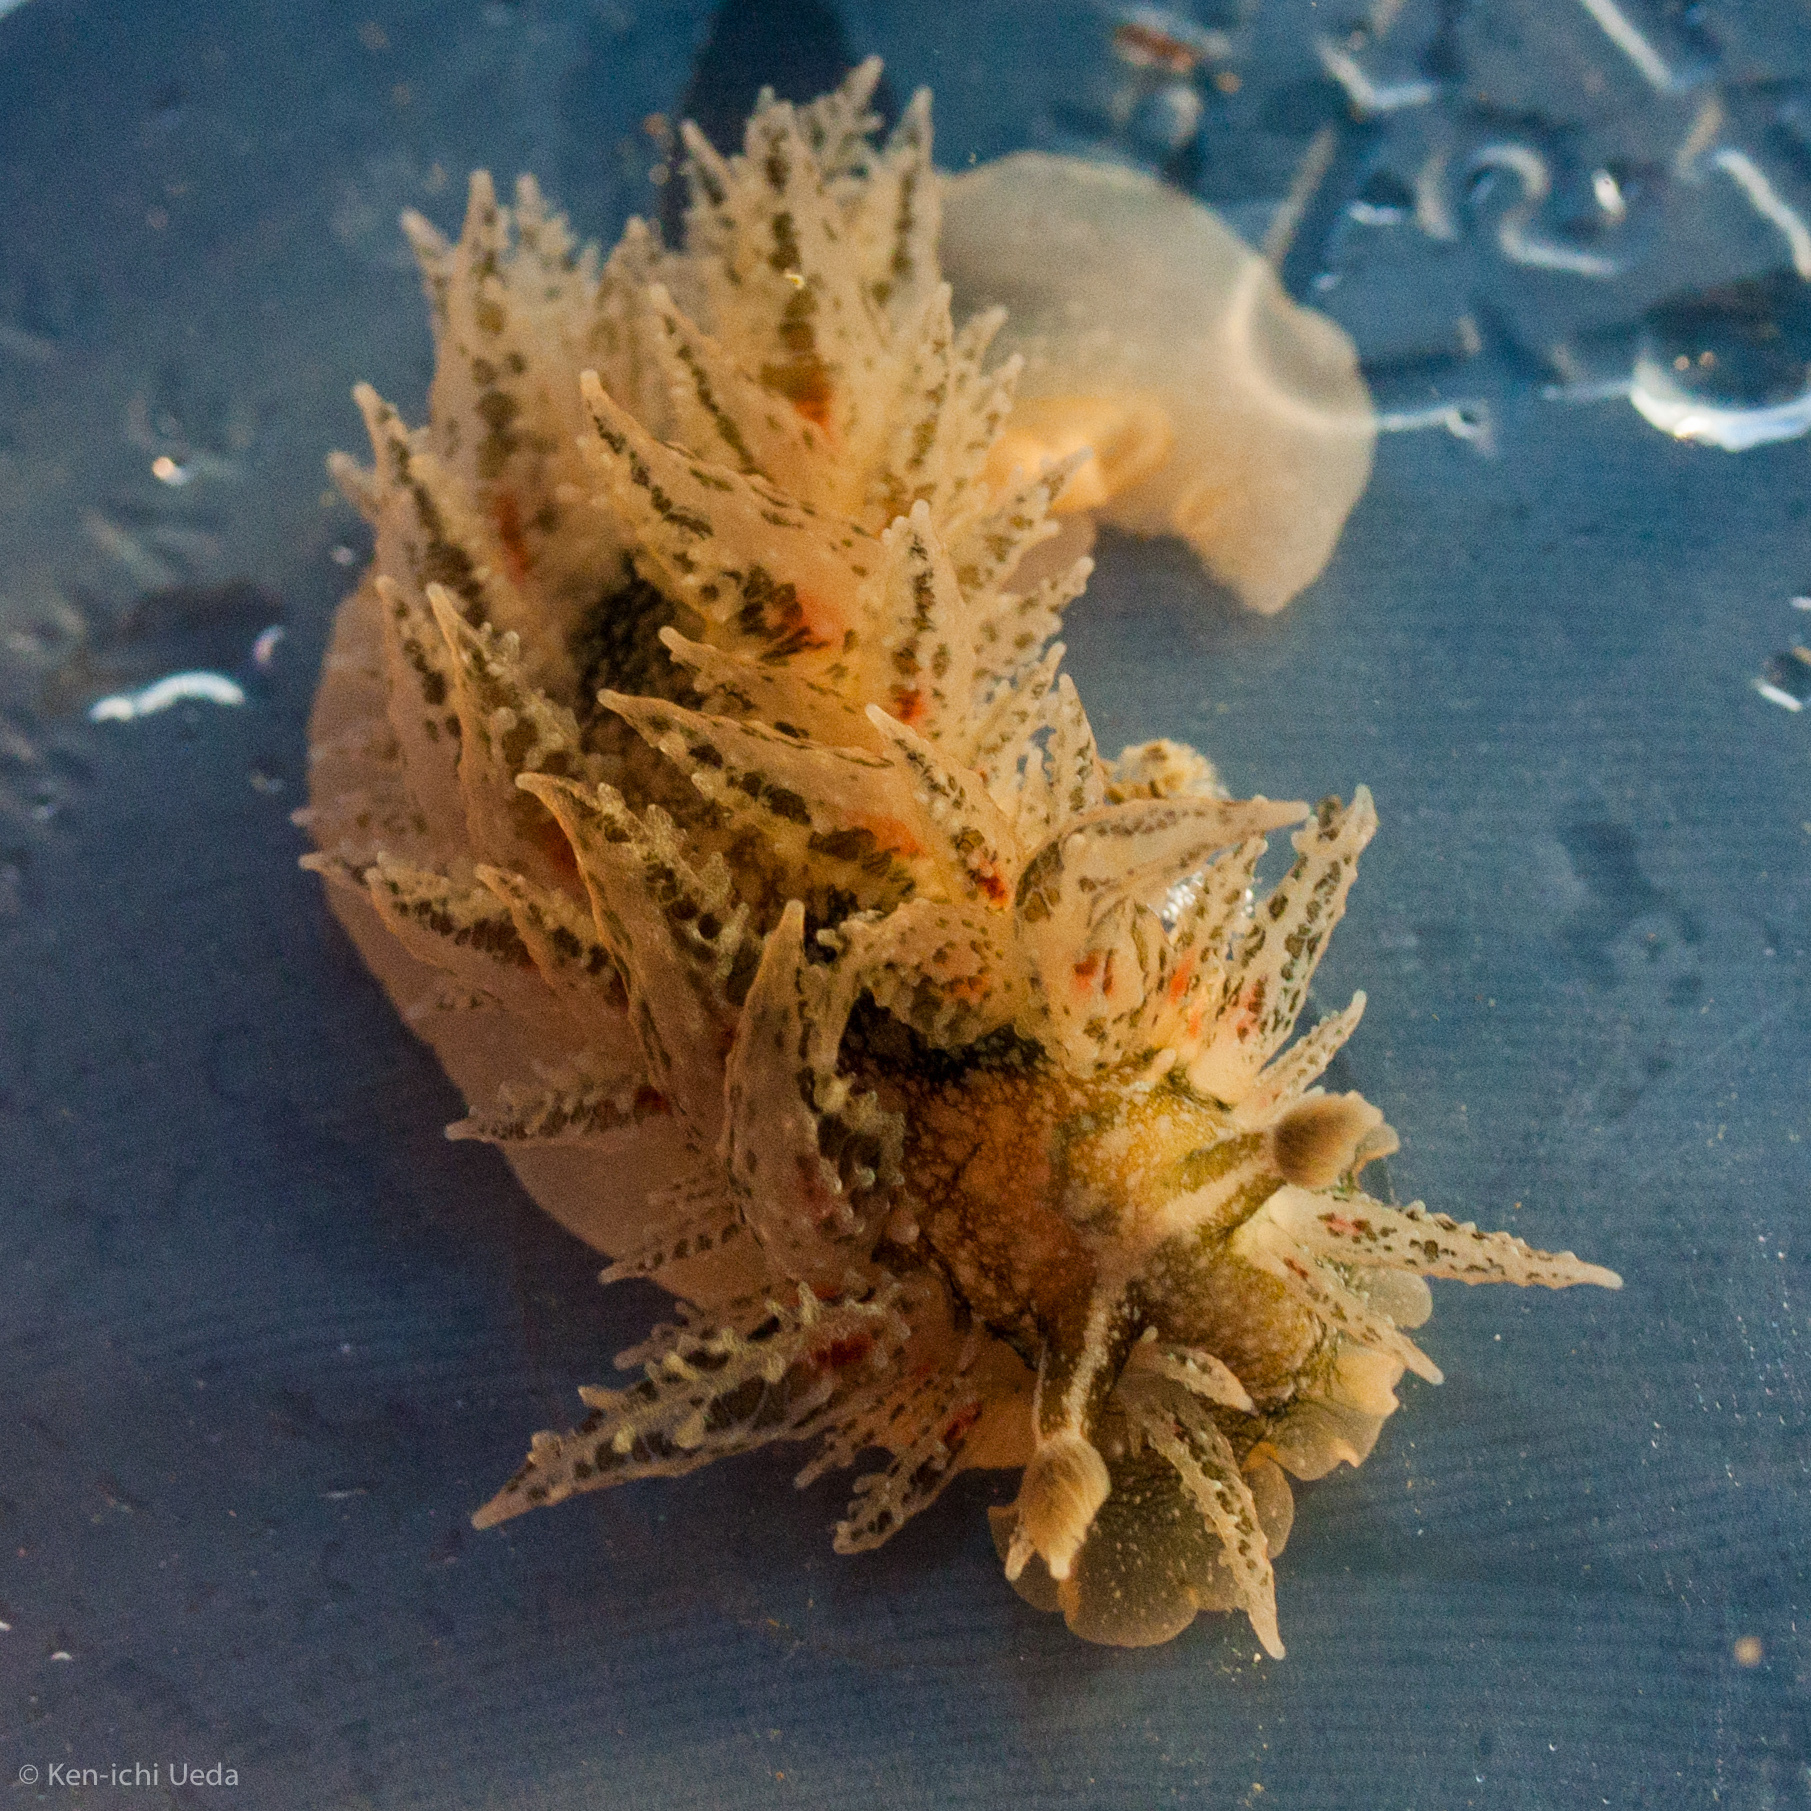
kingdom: Animalia
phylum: Mollusca
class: Gastropoda
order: Nudibranchia
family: Dironidae
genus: Dirona
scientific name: Dirona picta
